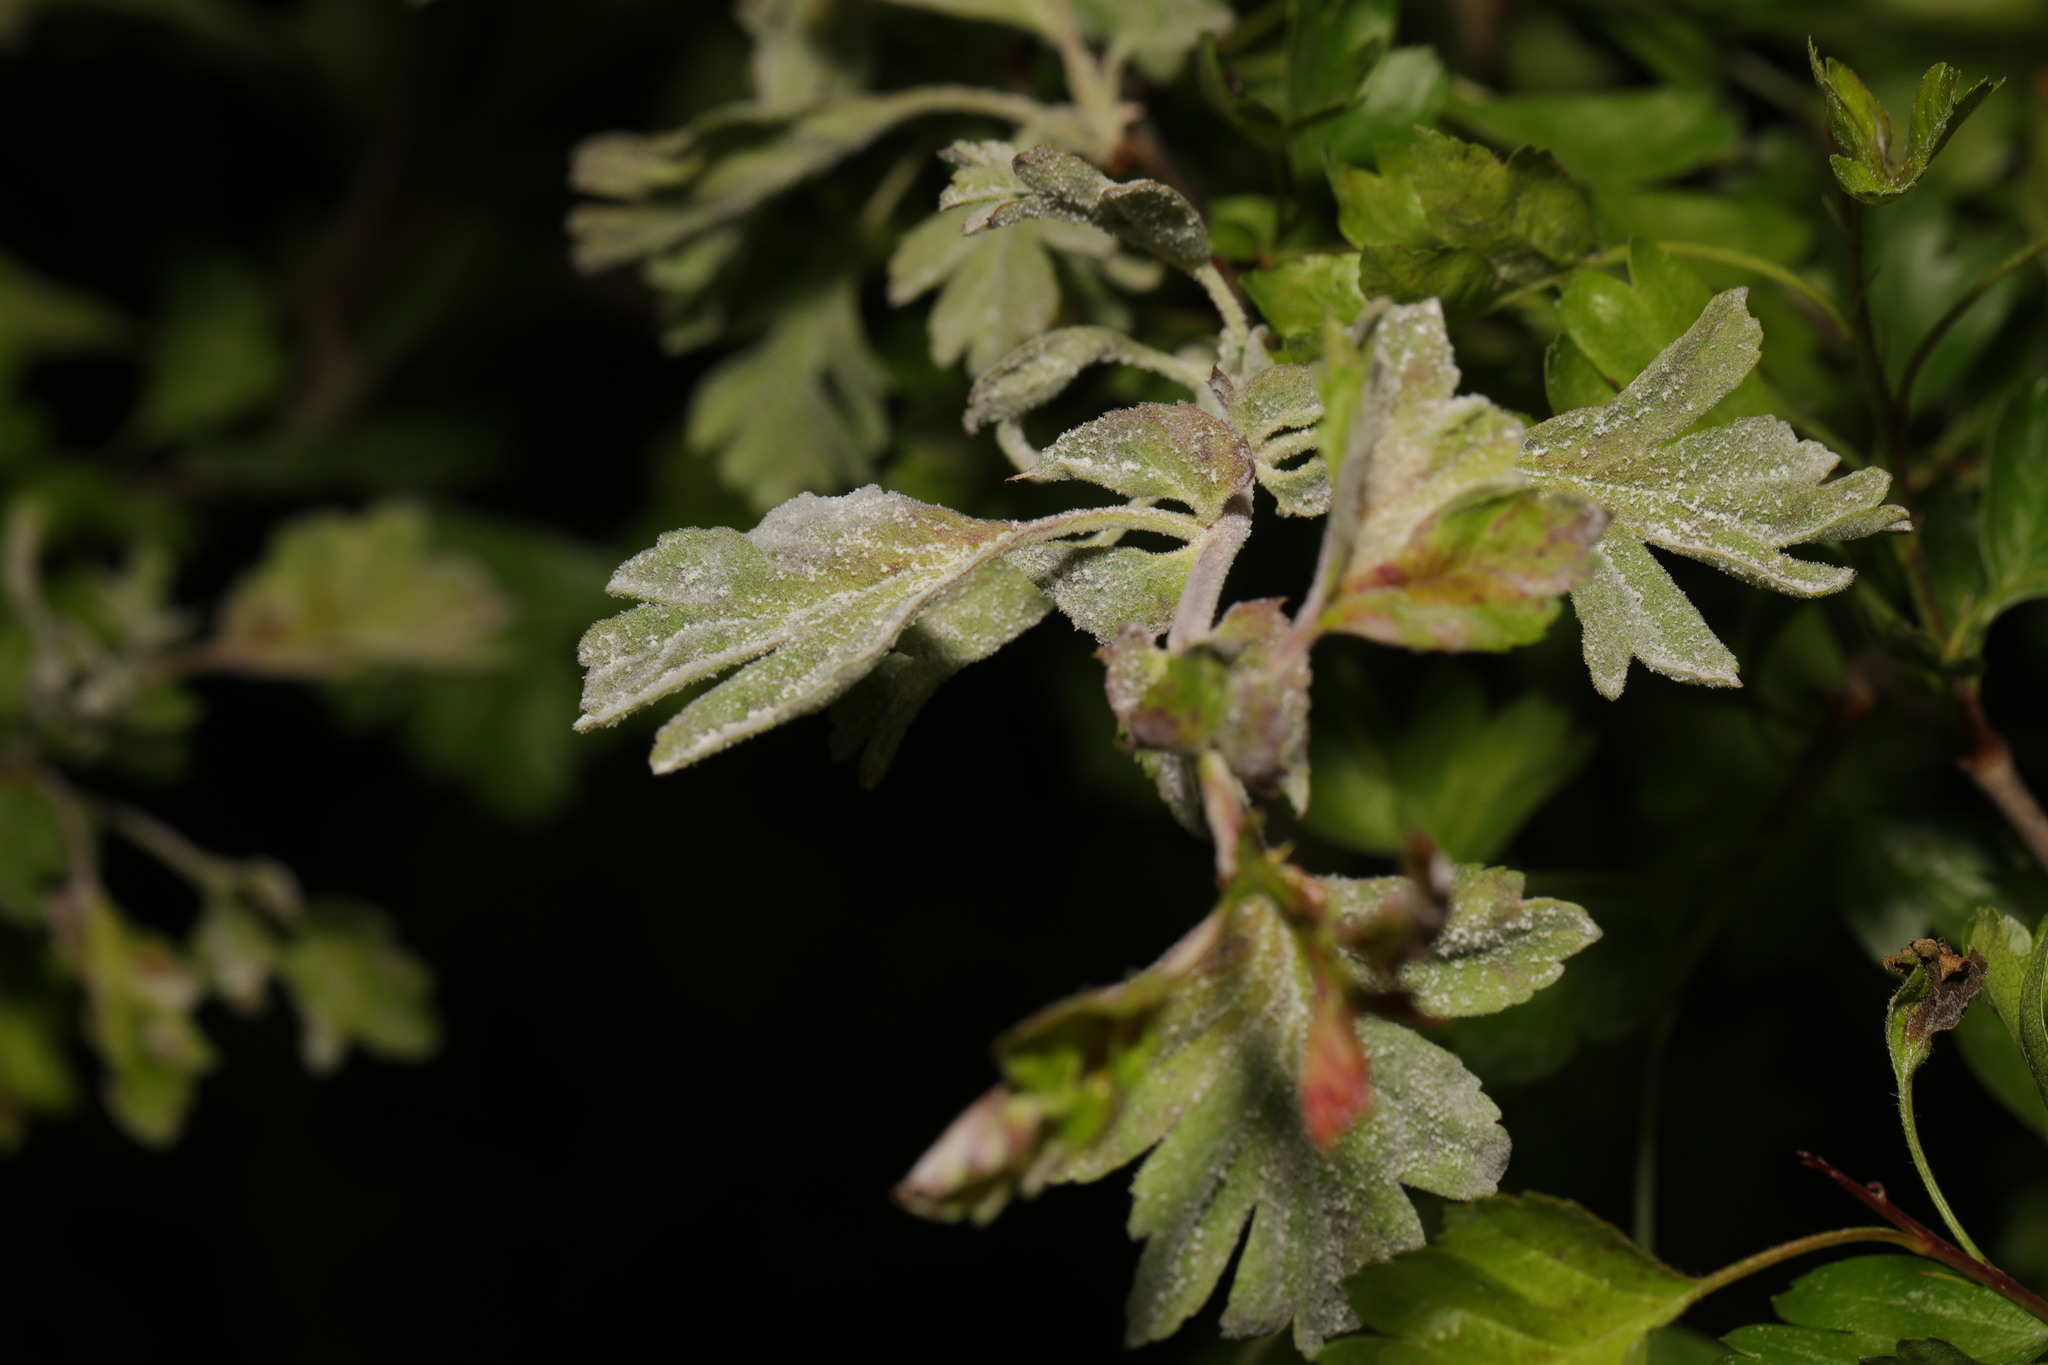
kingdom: Fungi
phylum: Ascomycota
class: Leotiomycetes
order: Helotiales
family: Erysiphaceae
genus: Podosphaera
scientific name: Podosphaera clandestina
